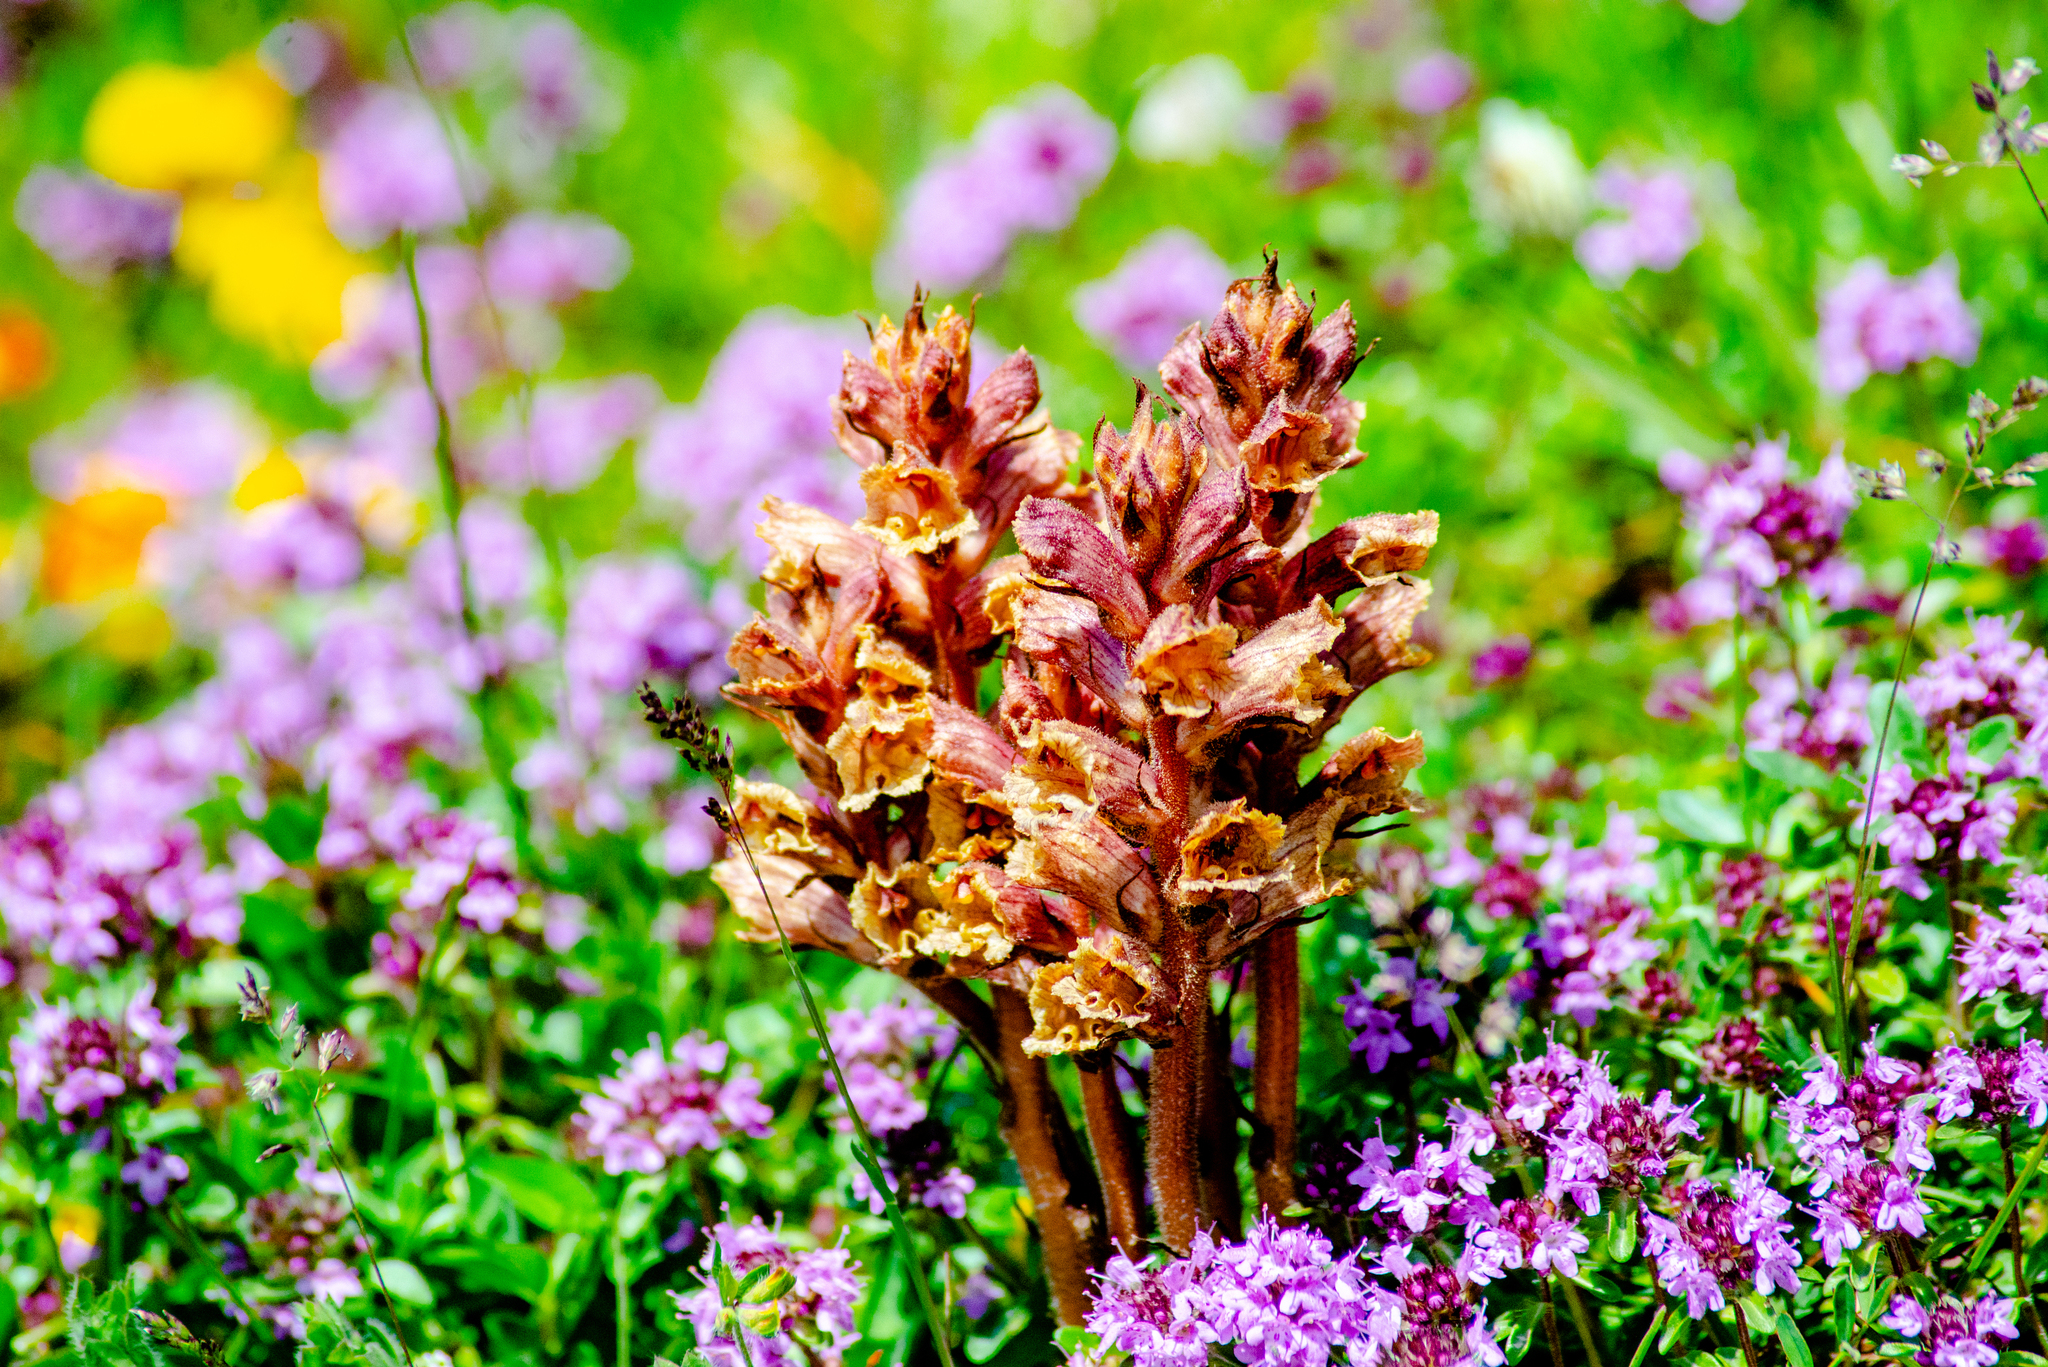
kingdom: Plantae
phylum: Tracheophyta
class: Magnoliopsida
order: Lamiales
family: Orobanchaceae
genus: Orobanche
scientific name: Orobanche alba
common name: Thyme broomrape
